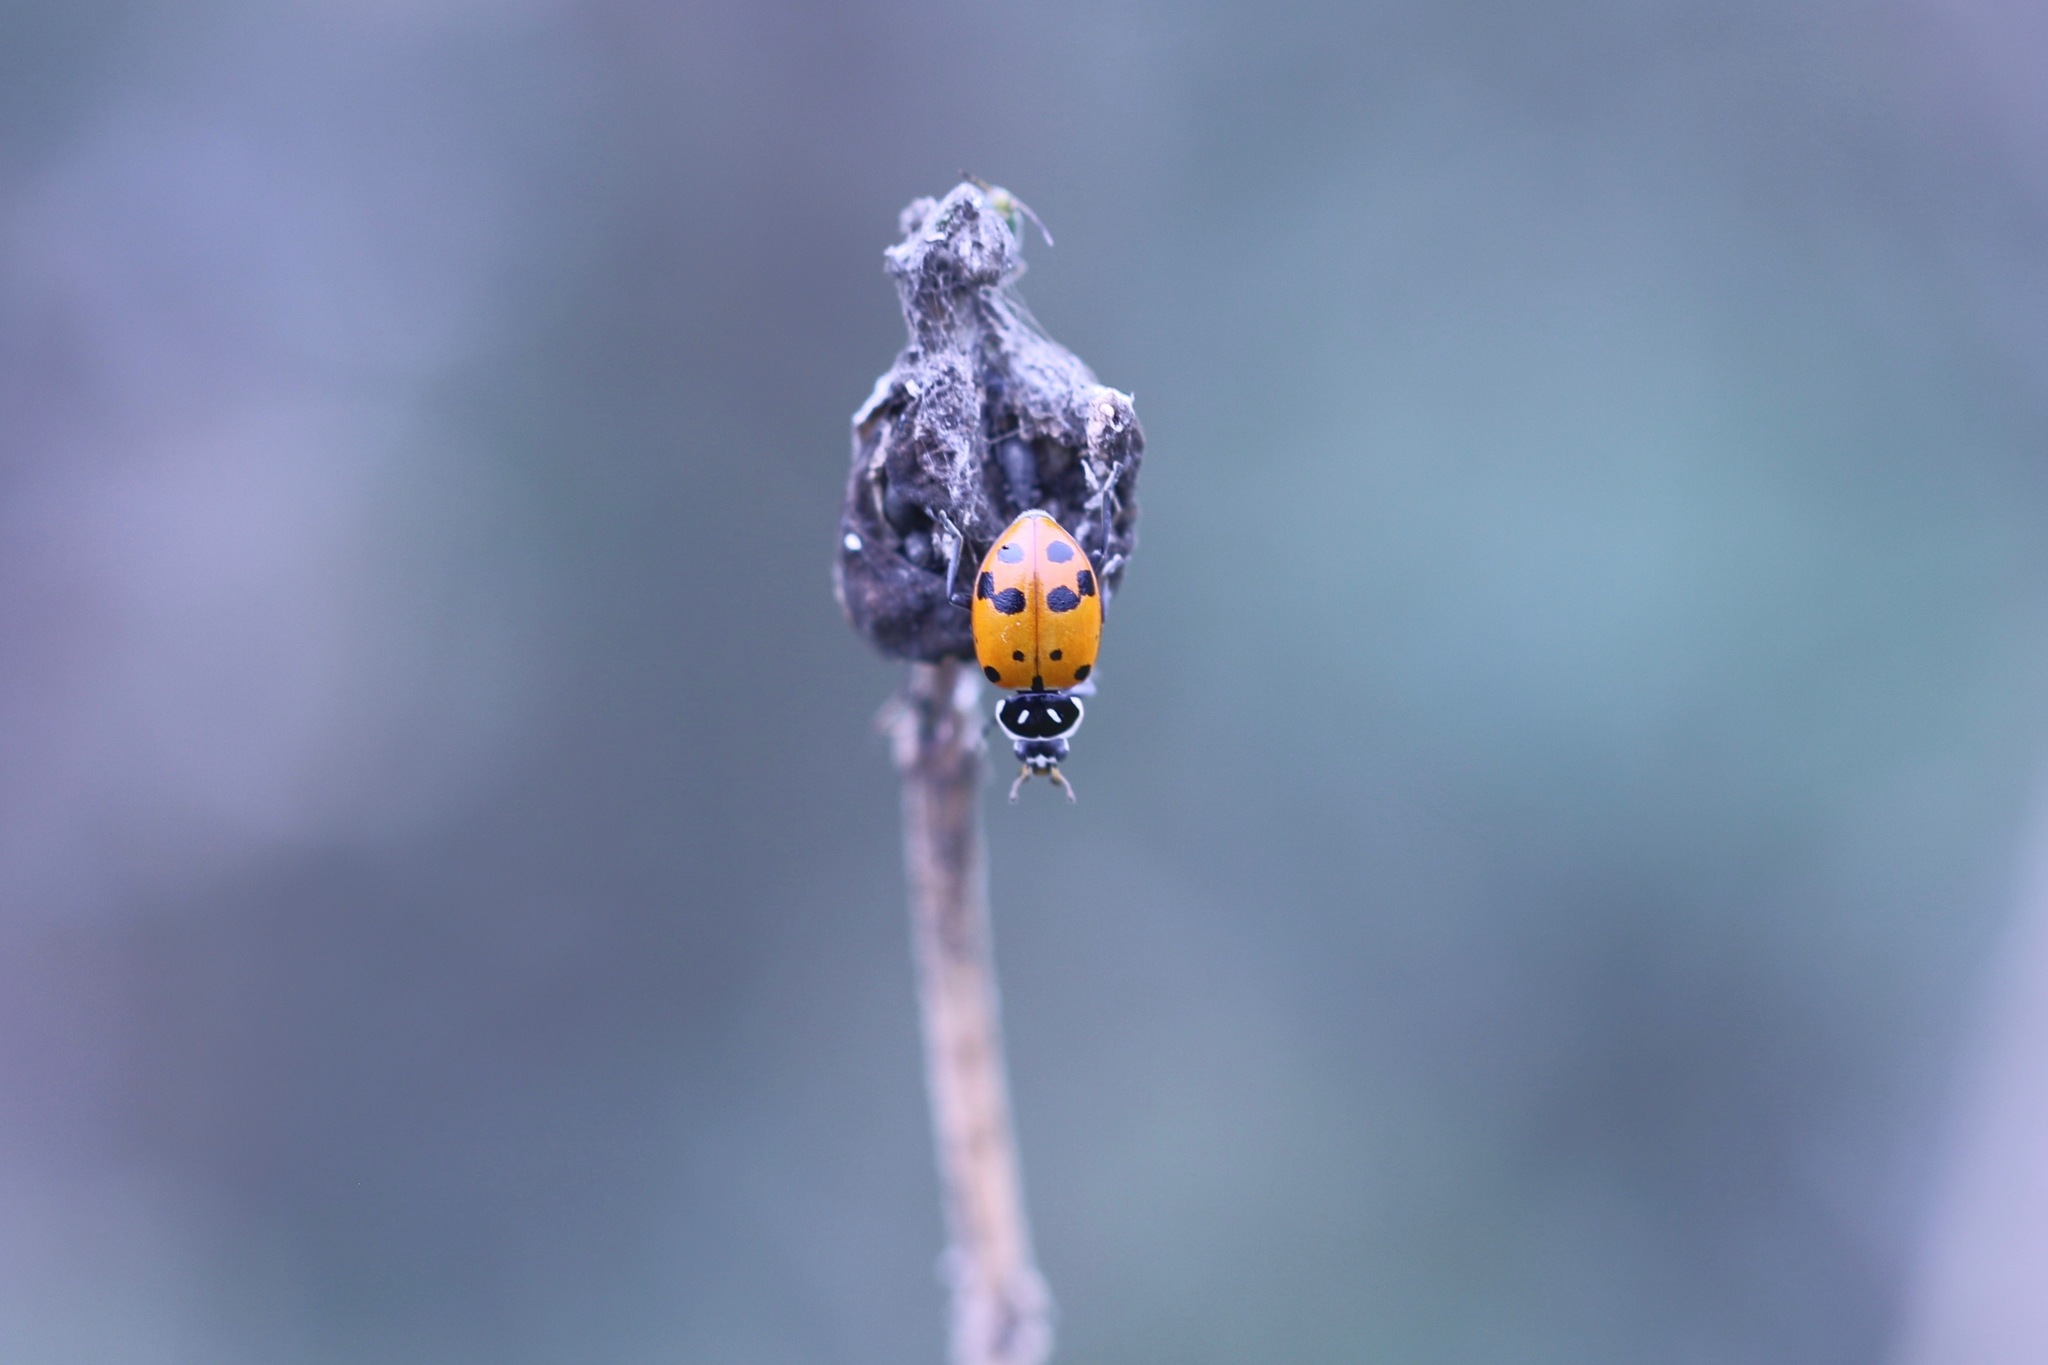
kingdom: Animalia
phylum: Arthropoda
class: Insecta
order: Coleoptera
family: Coccinellidae
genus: Hippodamia
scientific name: Hippodamia convergens
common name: Convergent lady beetle
